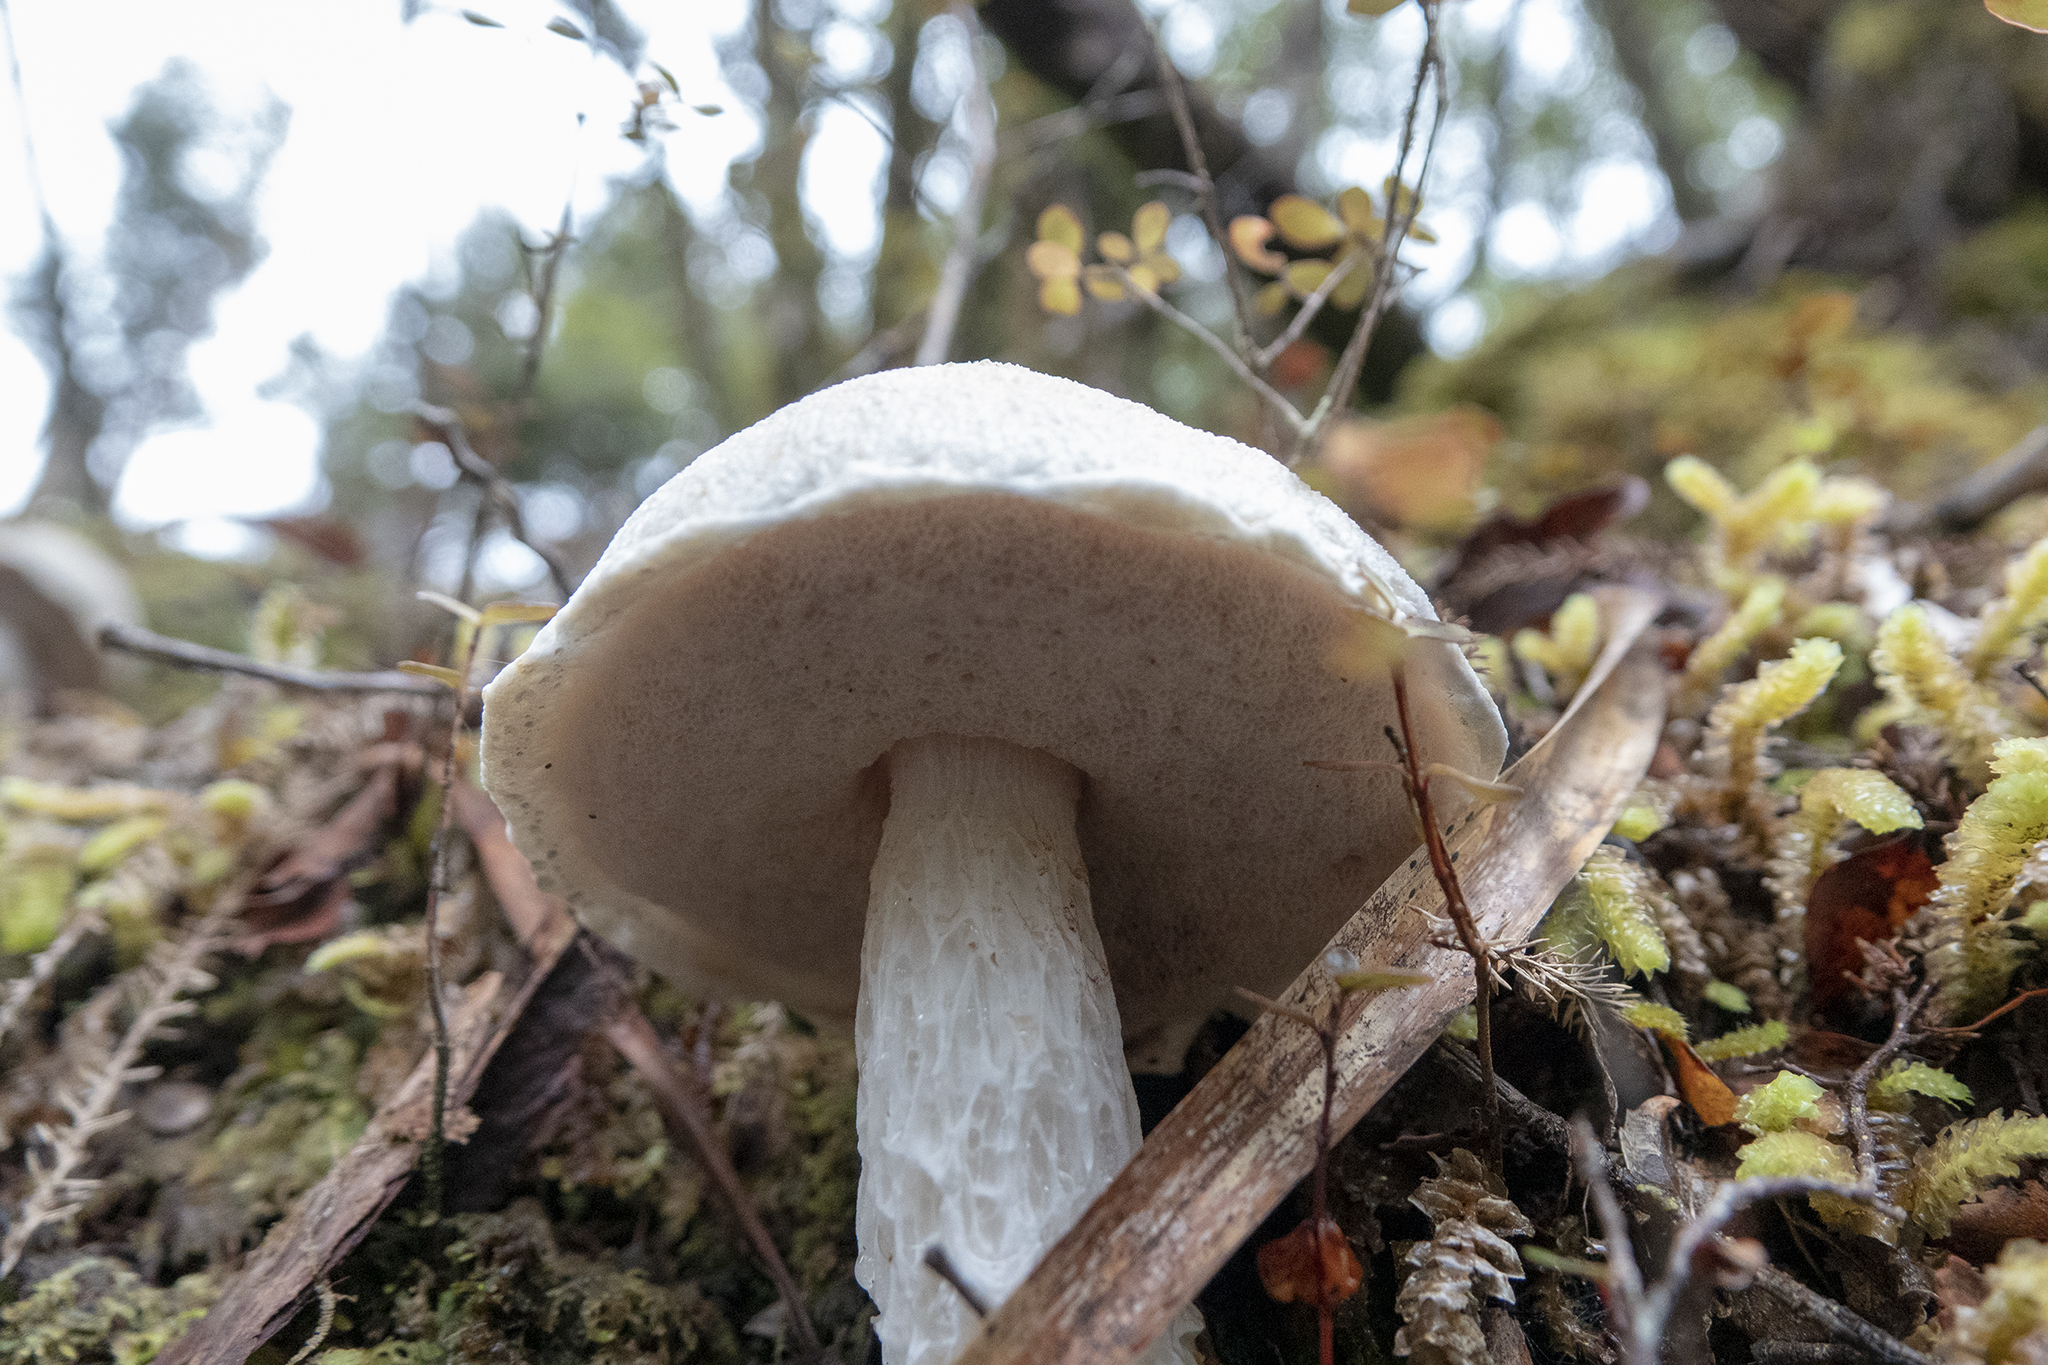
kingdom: Fungi
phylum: Basidiomycota
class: Agaricomycetes
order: Boletales
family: Boletaceae
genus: Fistulinella
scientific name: Fistulinella nivea
